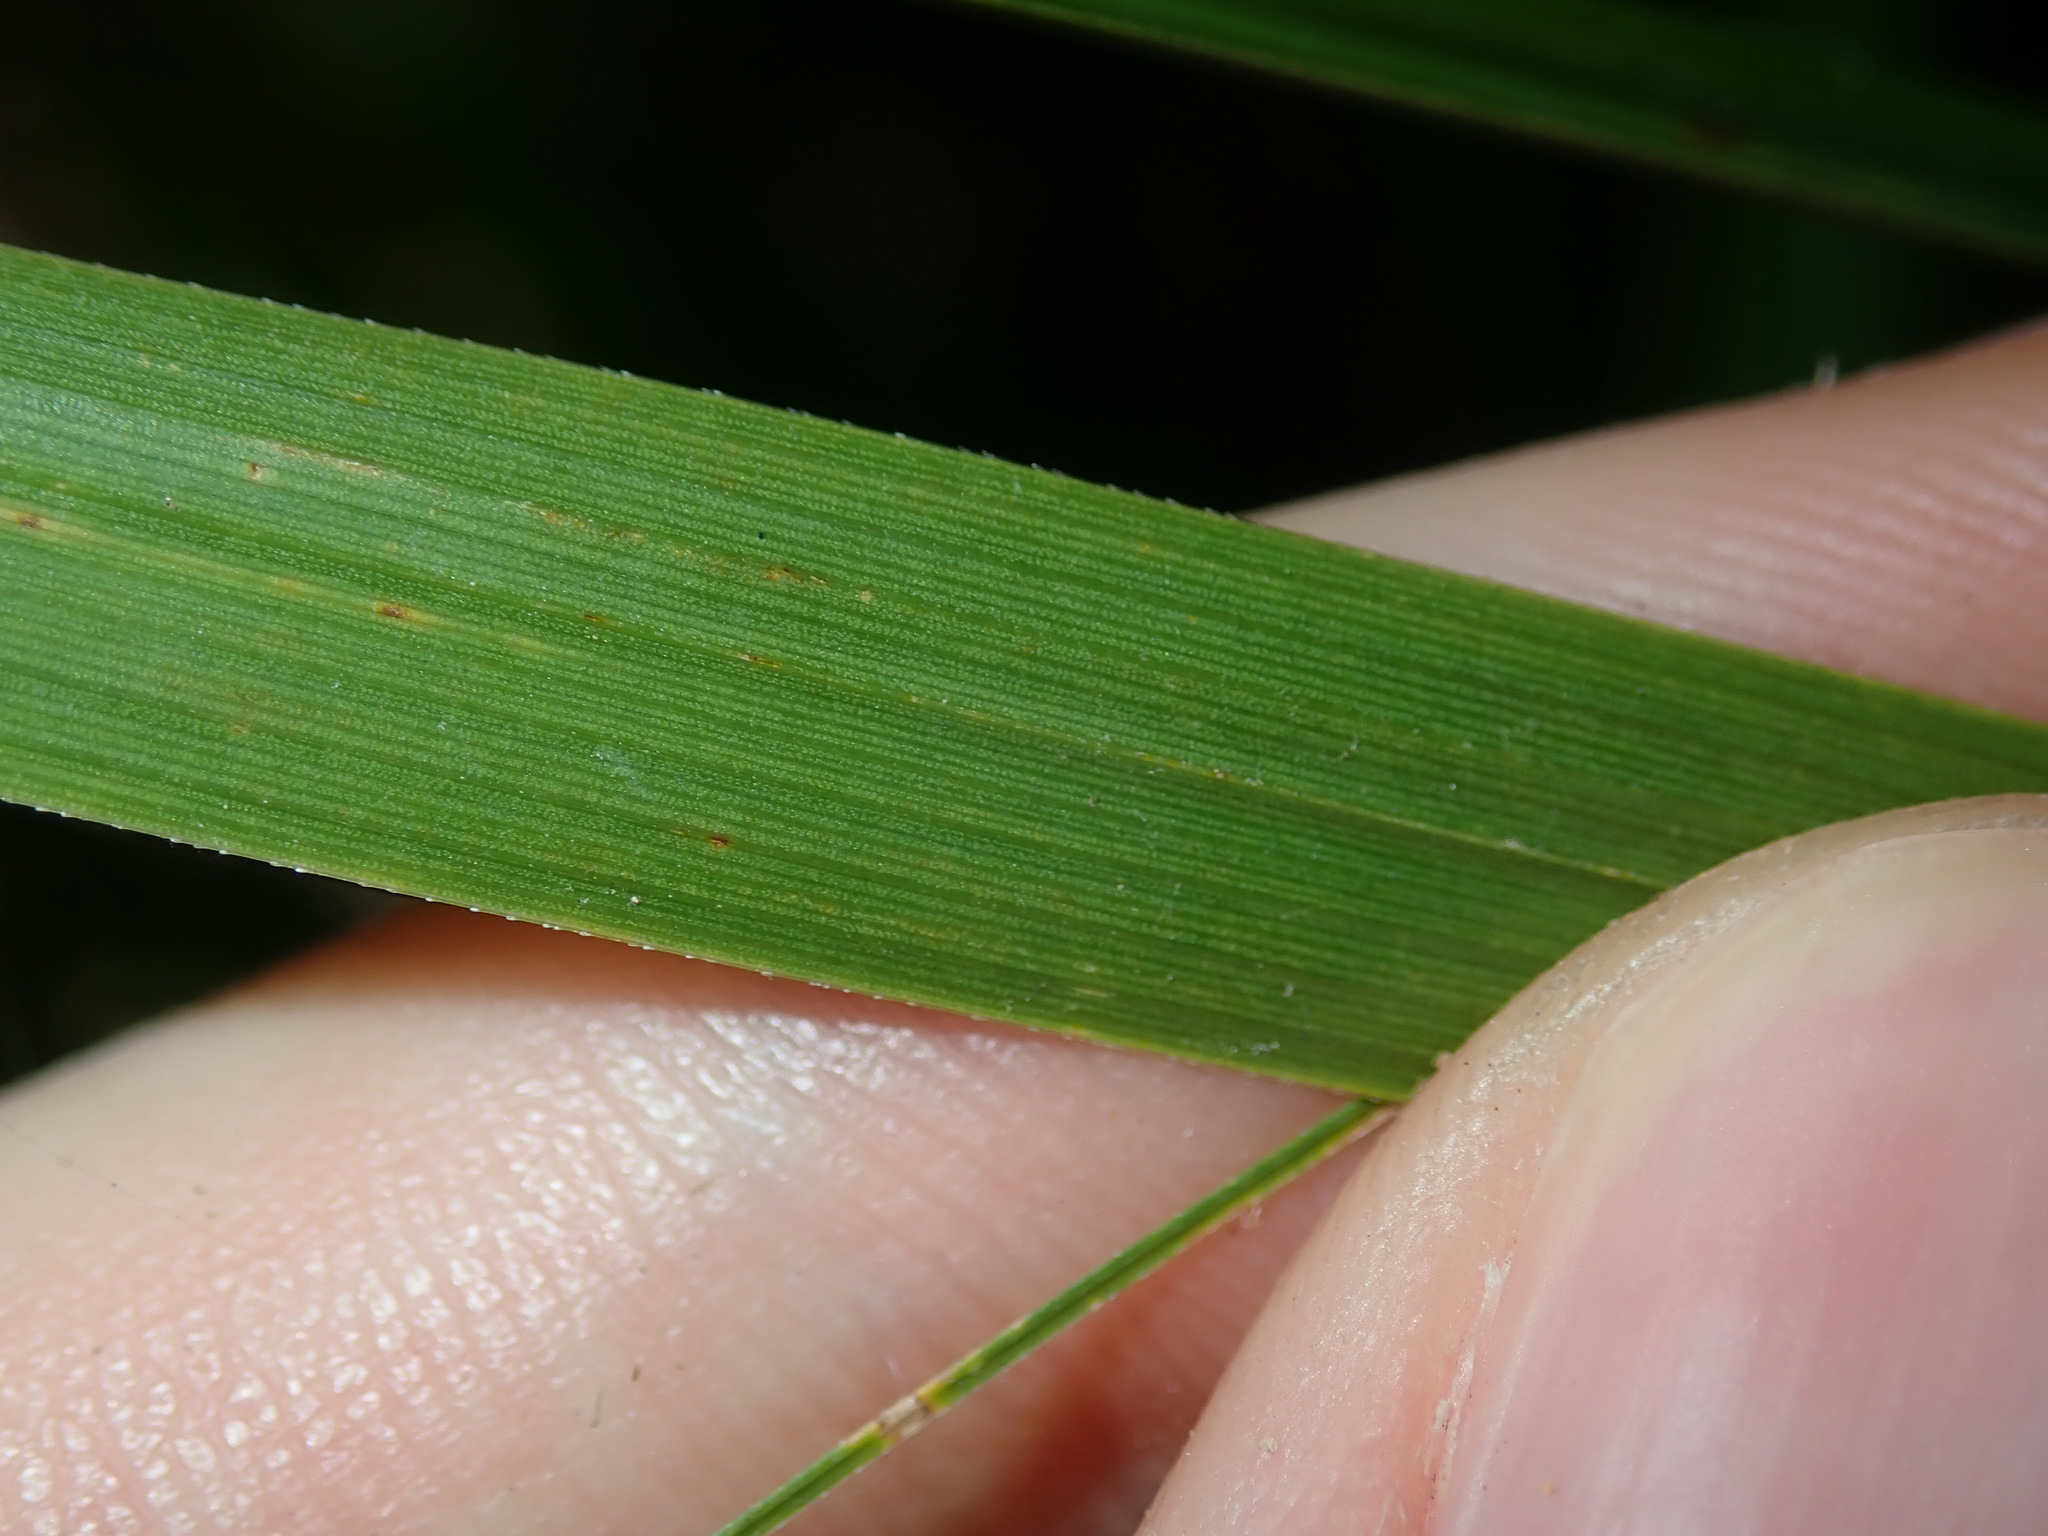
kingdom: Plantae
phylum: Tracheophyta
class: Liliopsida
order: Poales
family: Cyperaceae
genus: Cyperus
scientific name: Cyperus alternifolius
